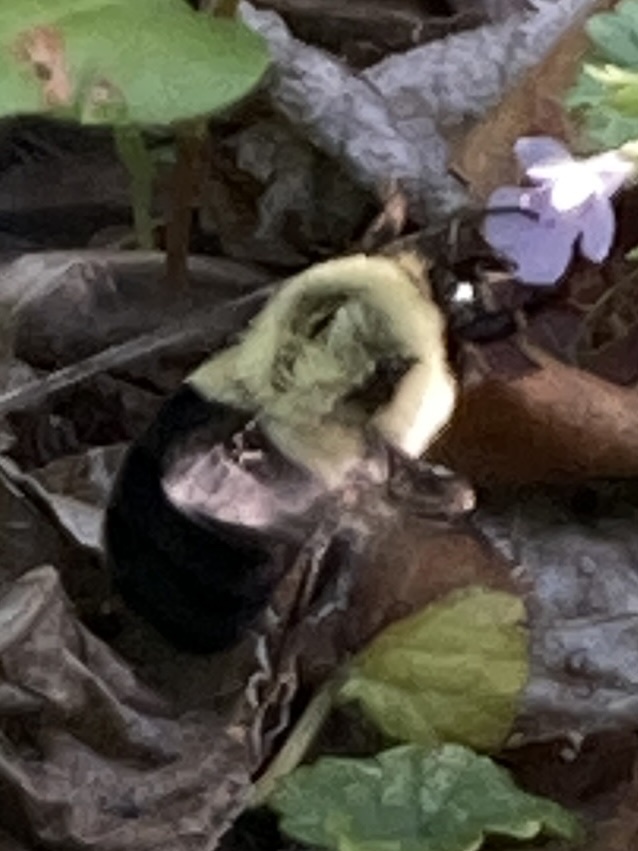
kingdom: Animalia
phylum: Arthropoda
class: Insecta
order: Hymenoptera
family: Apidae
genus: Bombus
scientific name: Bombus impatiens
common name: Common eastern bumble bee
